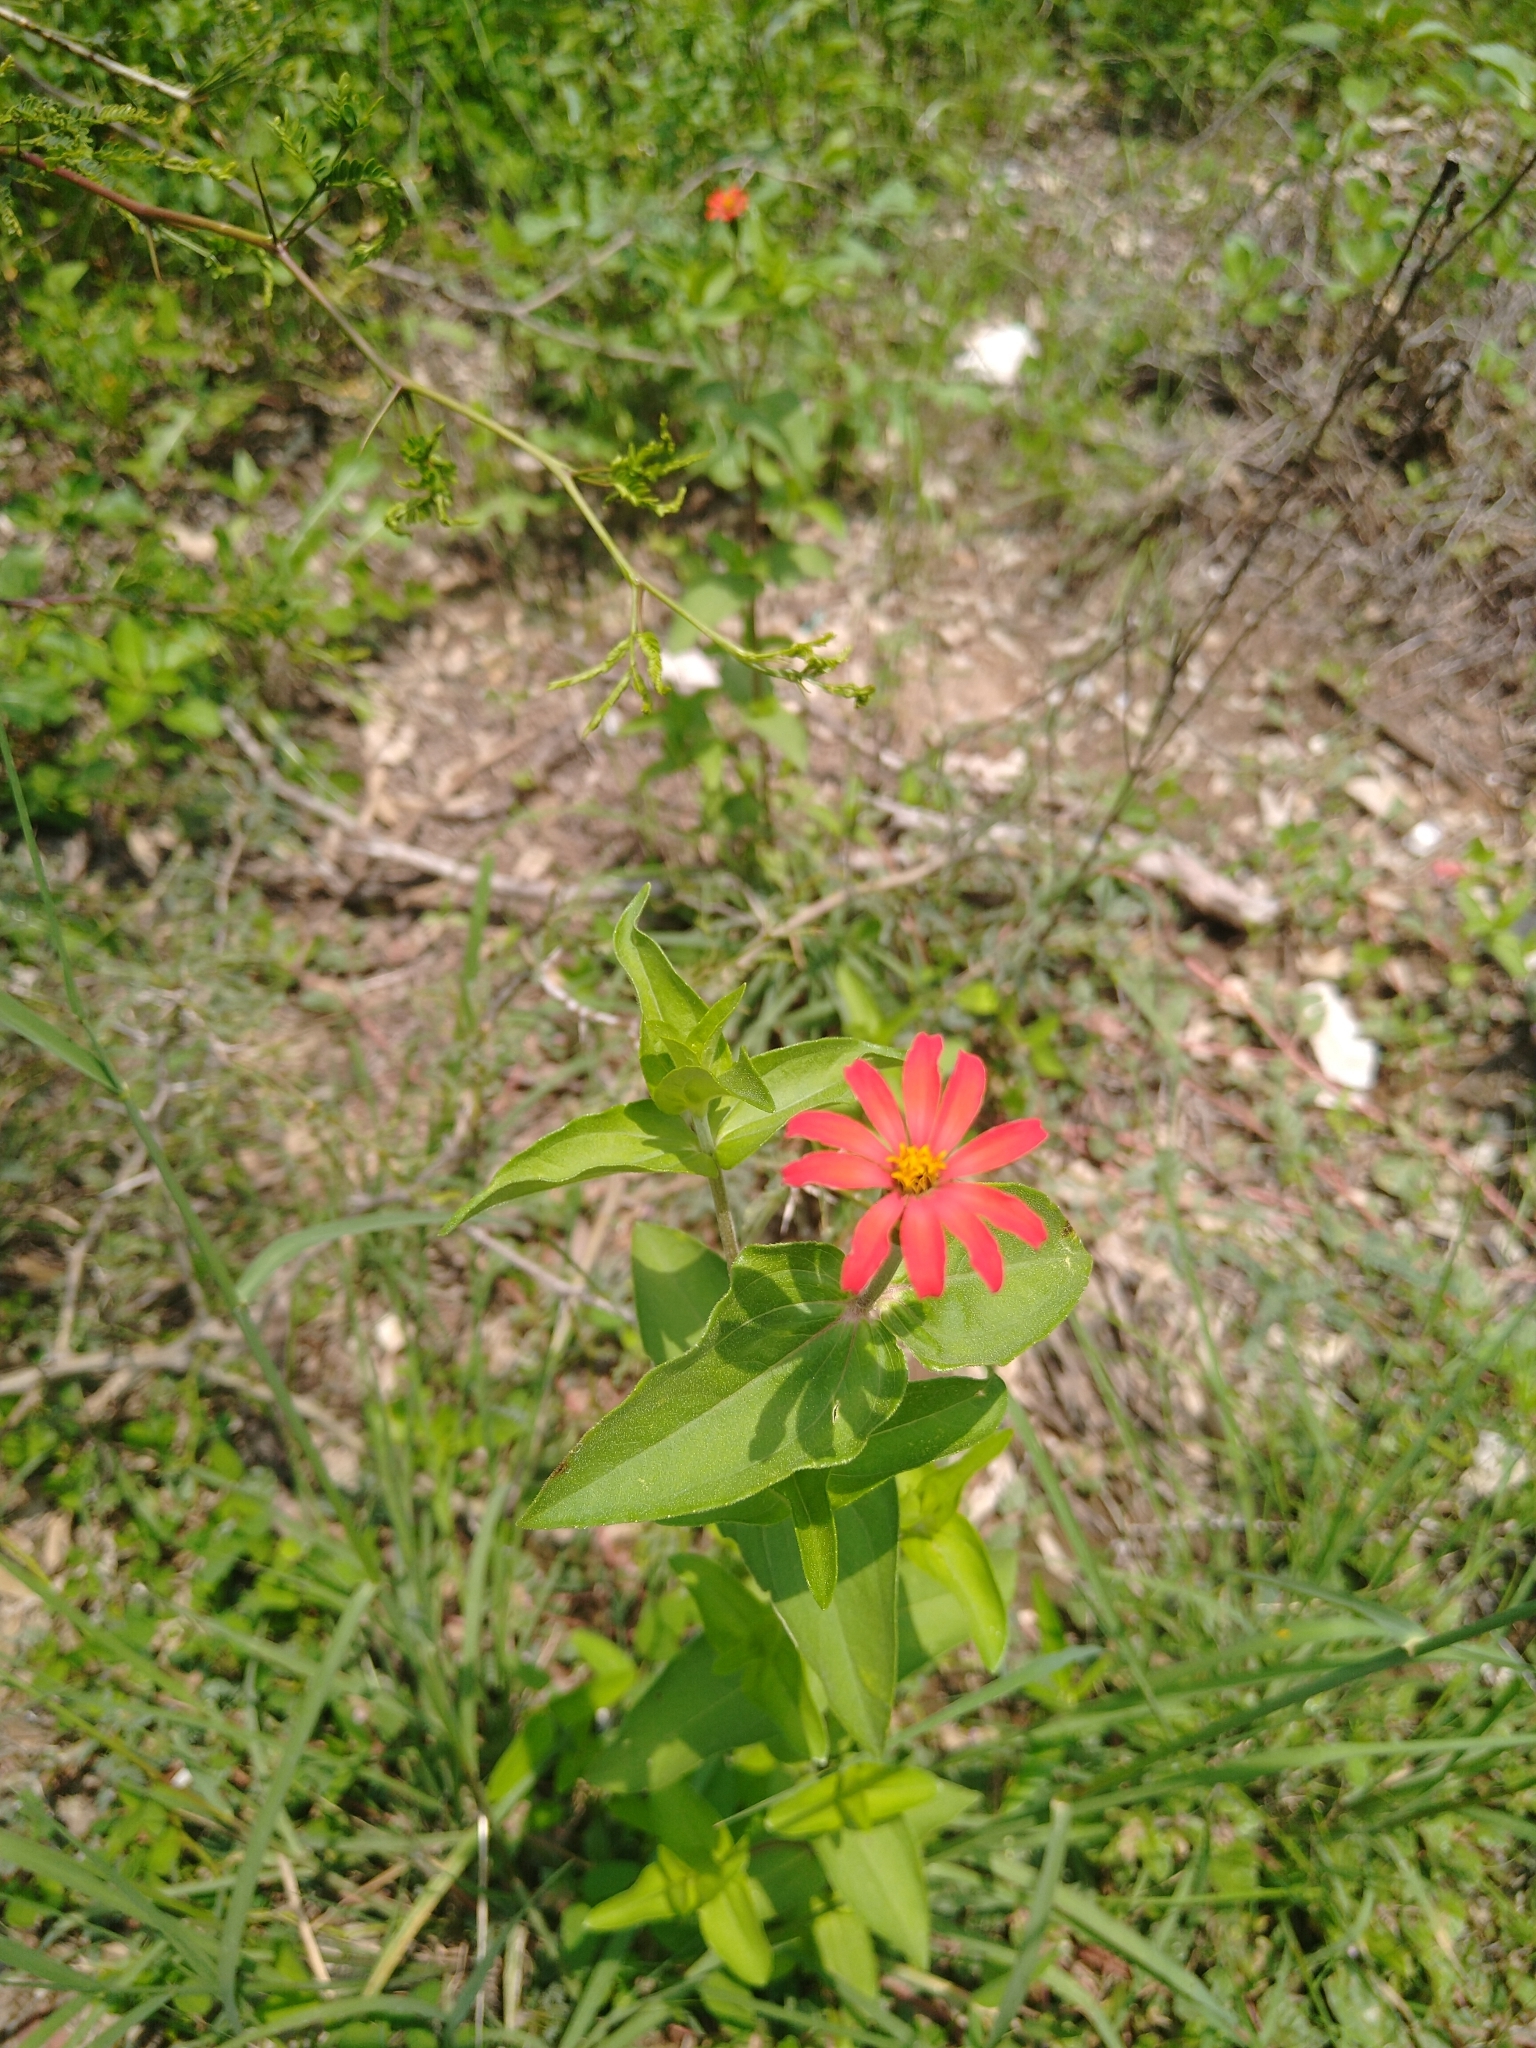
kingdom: Plantae
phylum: Tracheophyta
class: Magnoliopsida
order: Asterales
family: Asteraceae
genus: Zinnia
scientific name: Zinnia peruviana
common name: Peruvian zinnia
